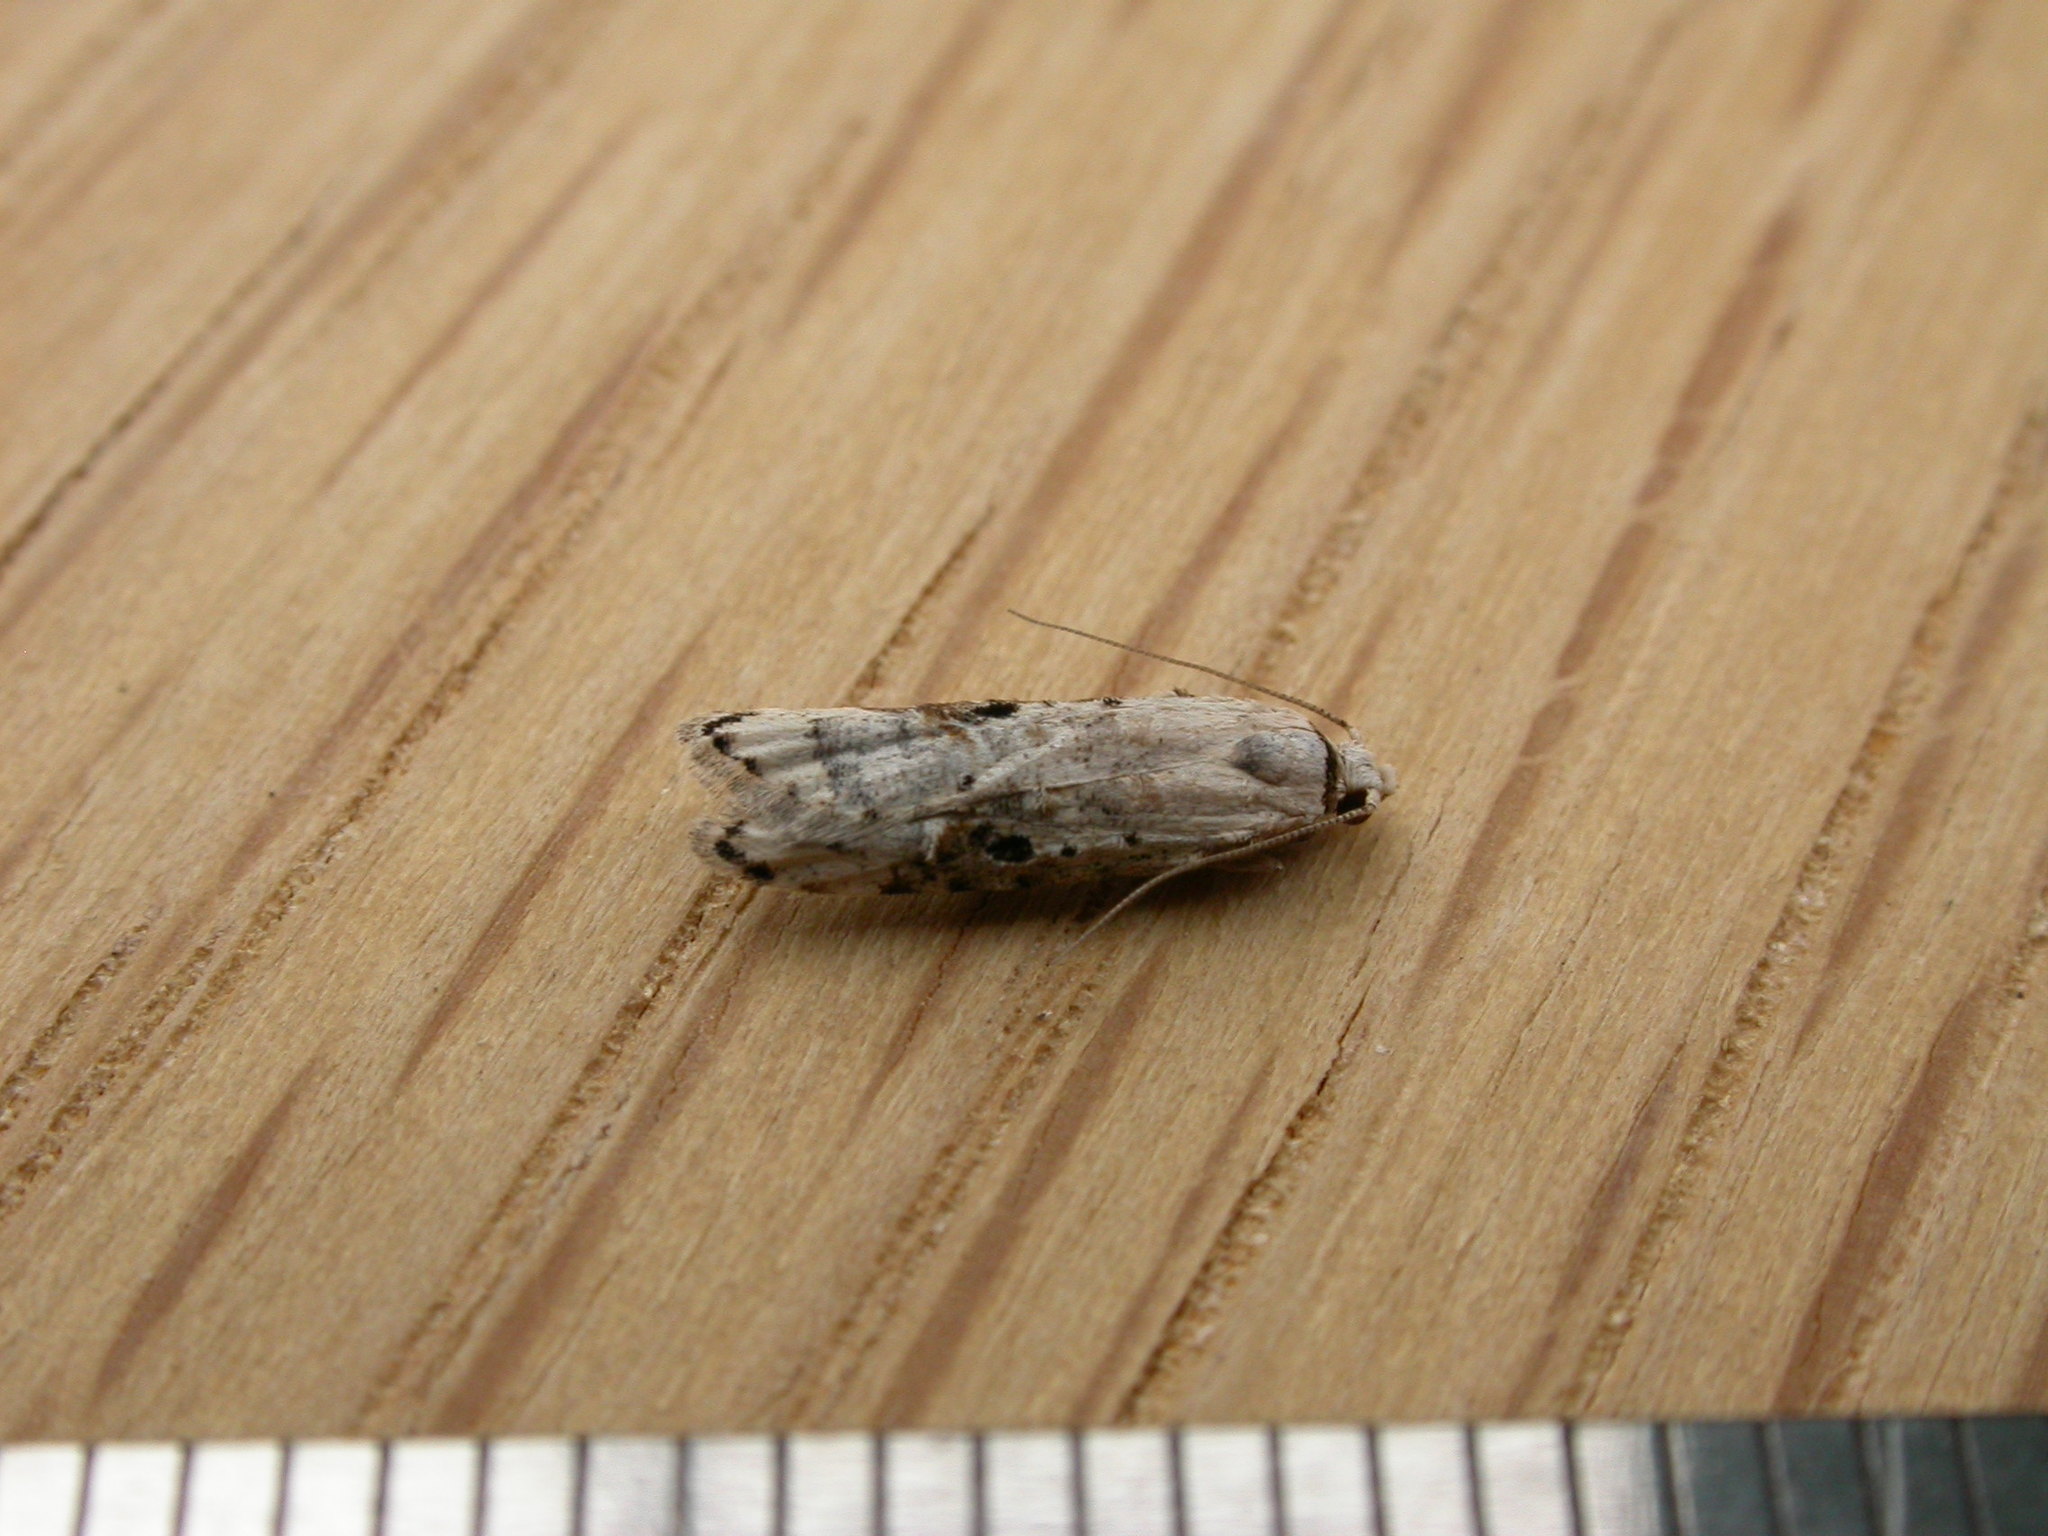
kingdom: Animalia
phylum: Arthropoda
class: Insecta
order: Lepidoptera
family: Carposinidae
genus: Sosineura
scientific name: Sosineura mimica
